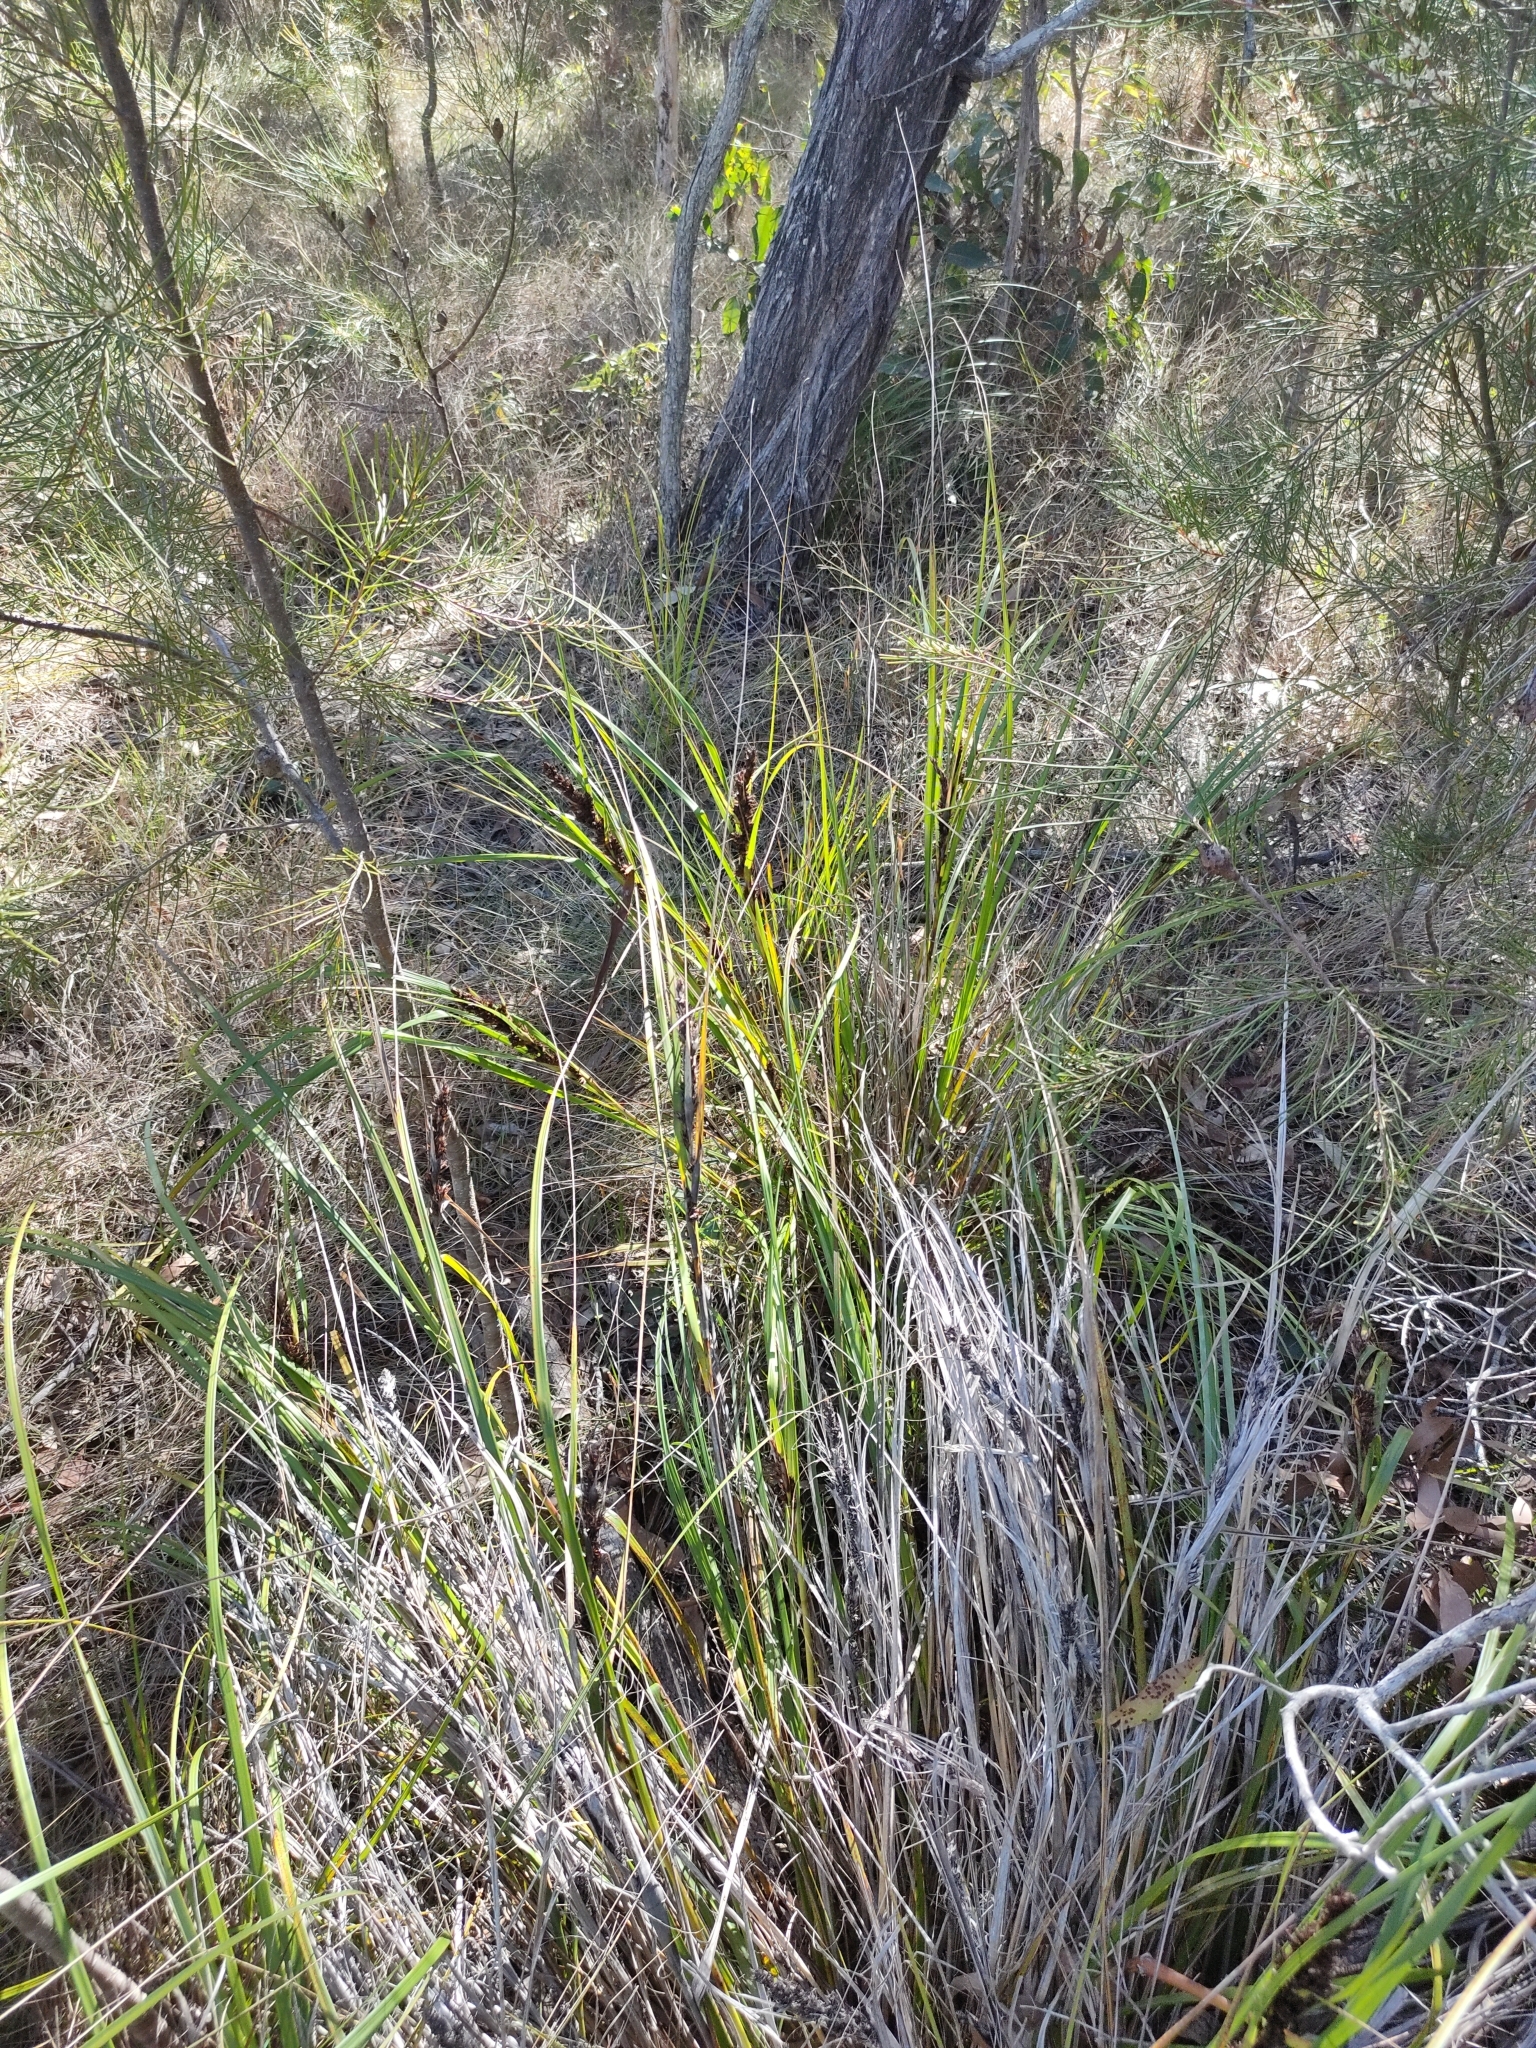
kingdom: Plantae
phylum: Tracheophyta
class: Liliopsida
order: Poales
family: Cyperaceae
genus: Gahnia
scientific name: Gahnia aspera
